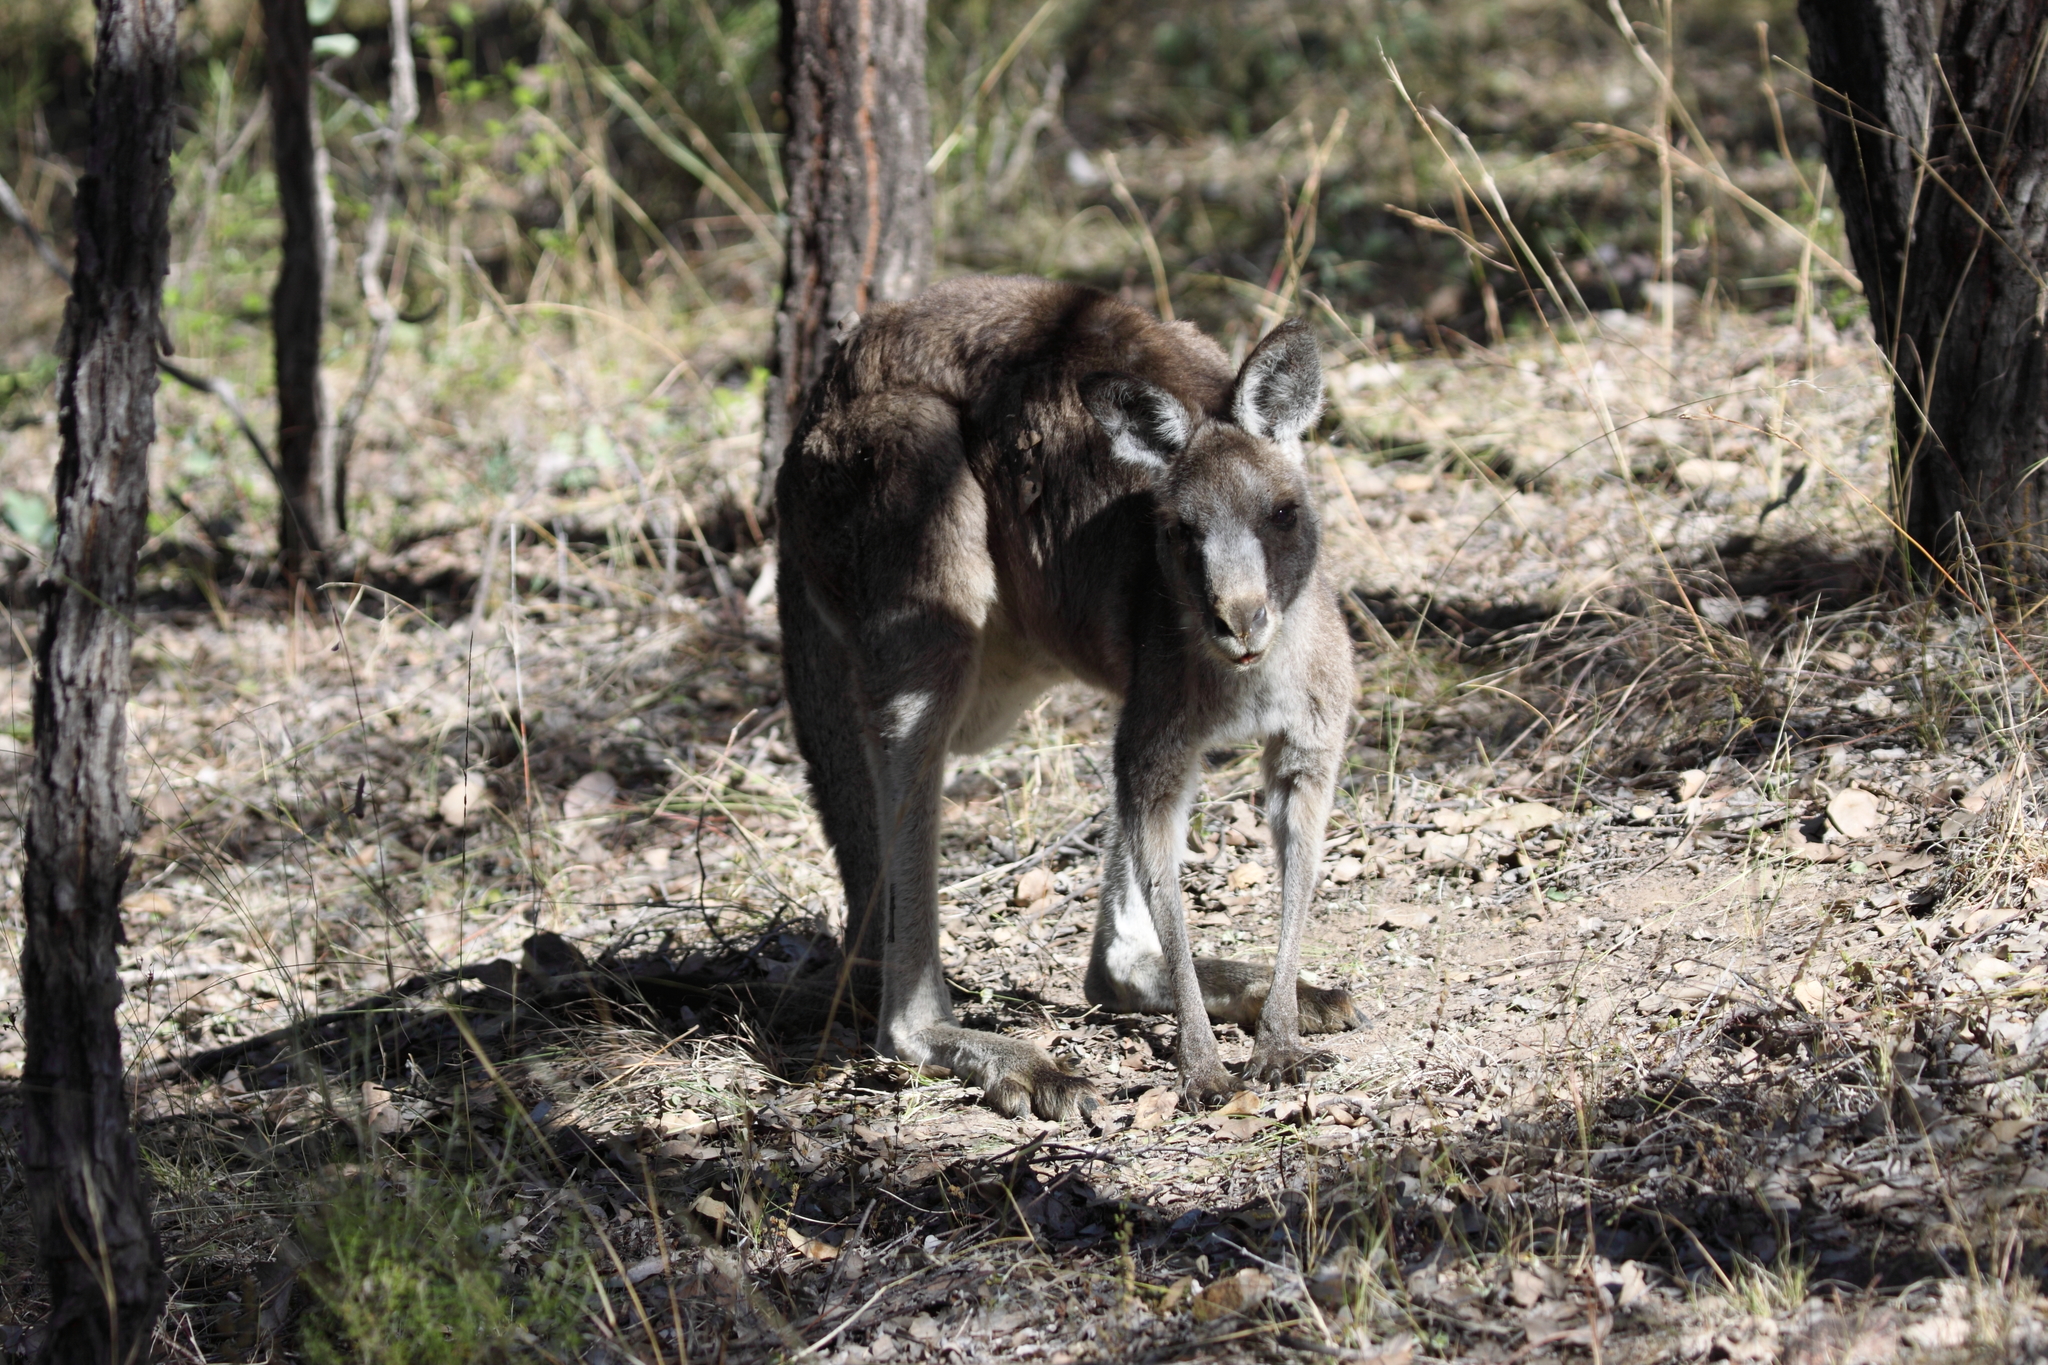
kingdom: Animalia
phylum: Chordata
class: Mammalia
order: Diprotodontia
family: Macropodidae
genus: Macropus
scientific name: Macropus giganteus
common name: Eastern grey kangaroo
